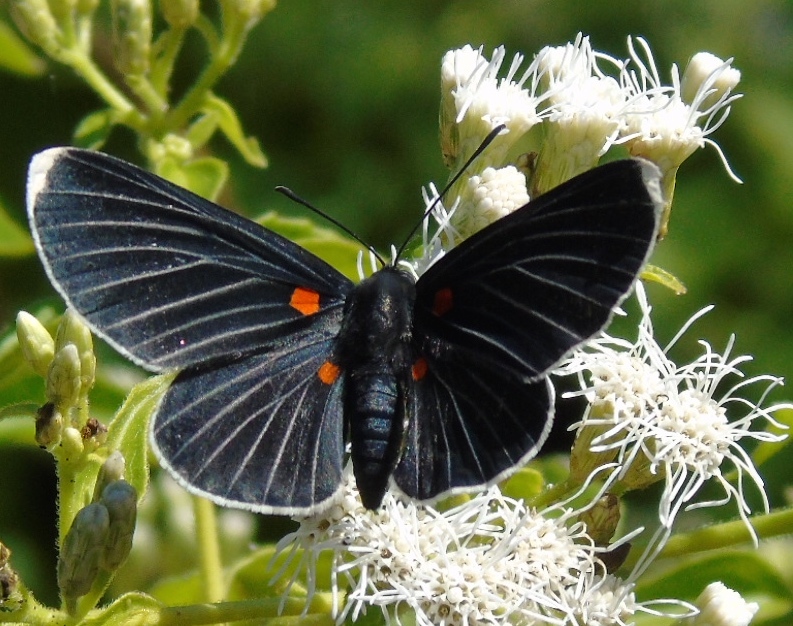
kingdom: Animalia
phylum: Arthropoda
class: Insecta
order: Lepidoptera
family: Lycaenidae
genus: Melanis
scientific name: Melanis
